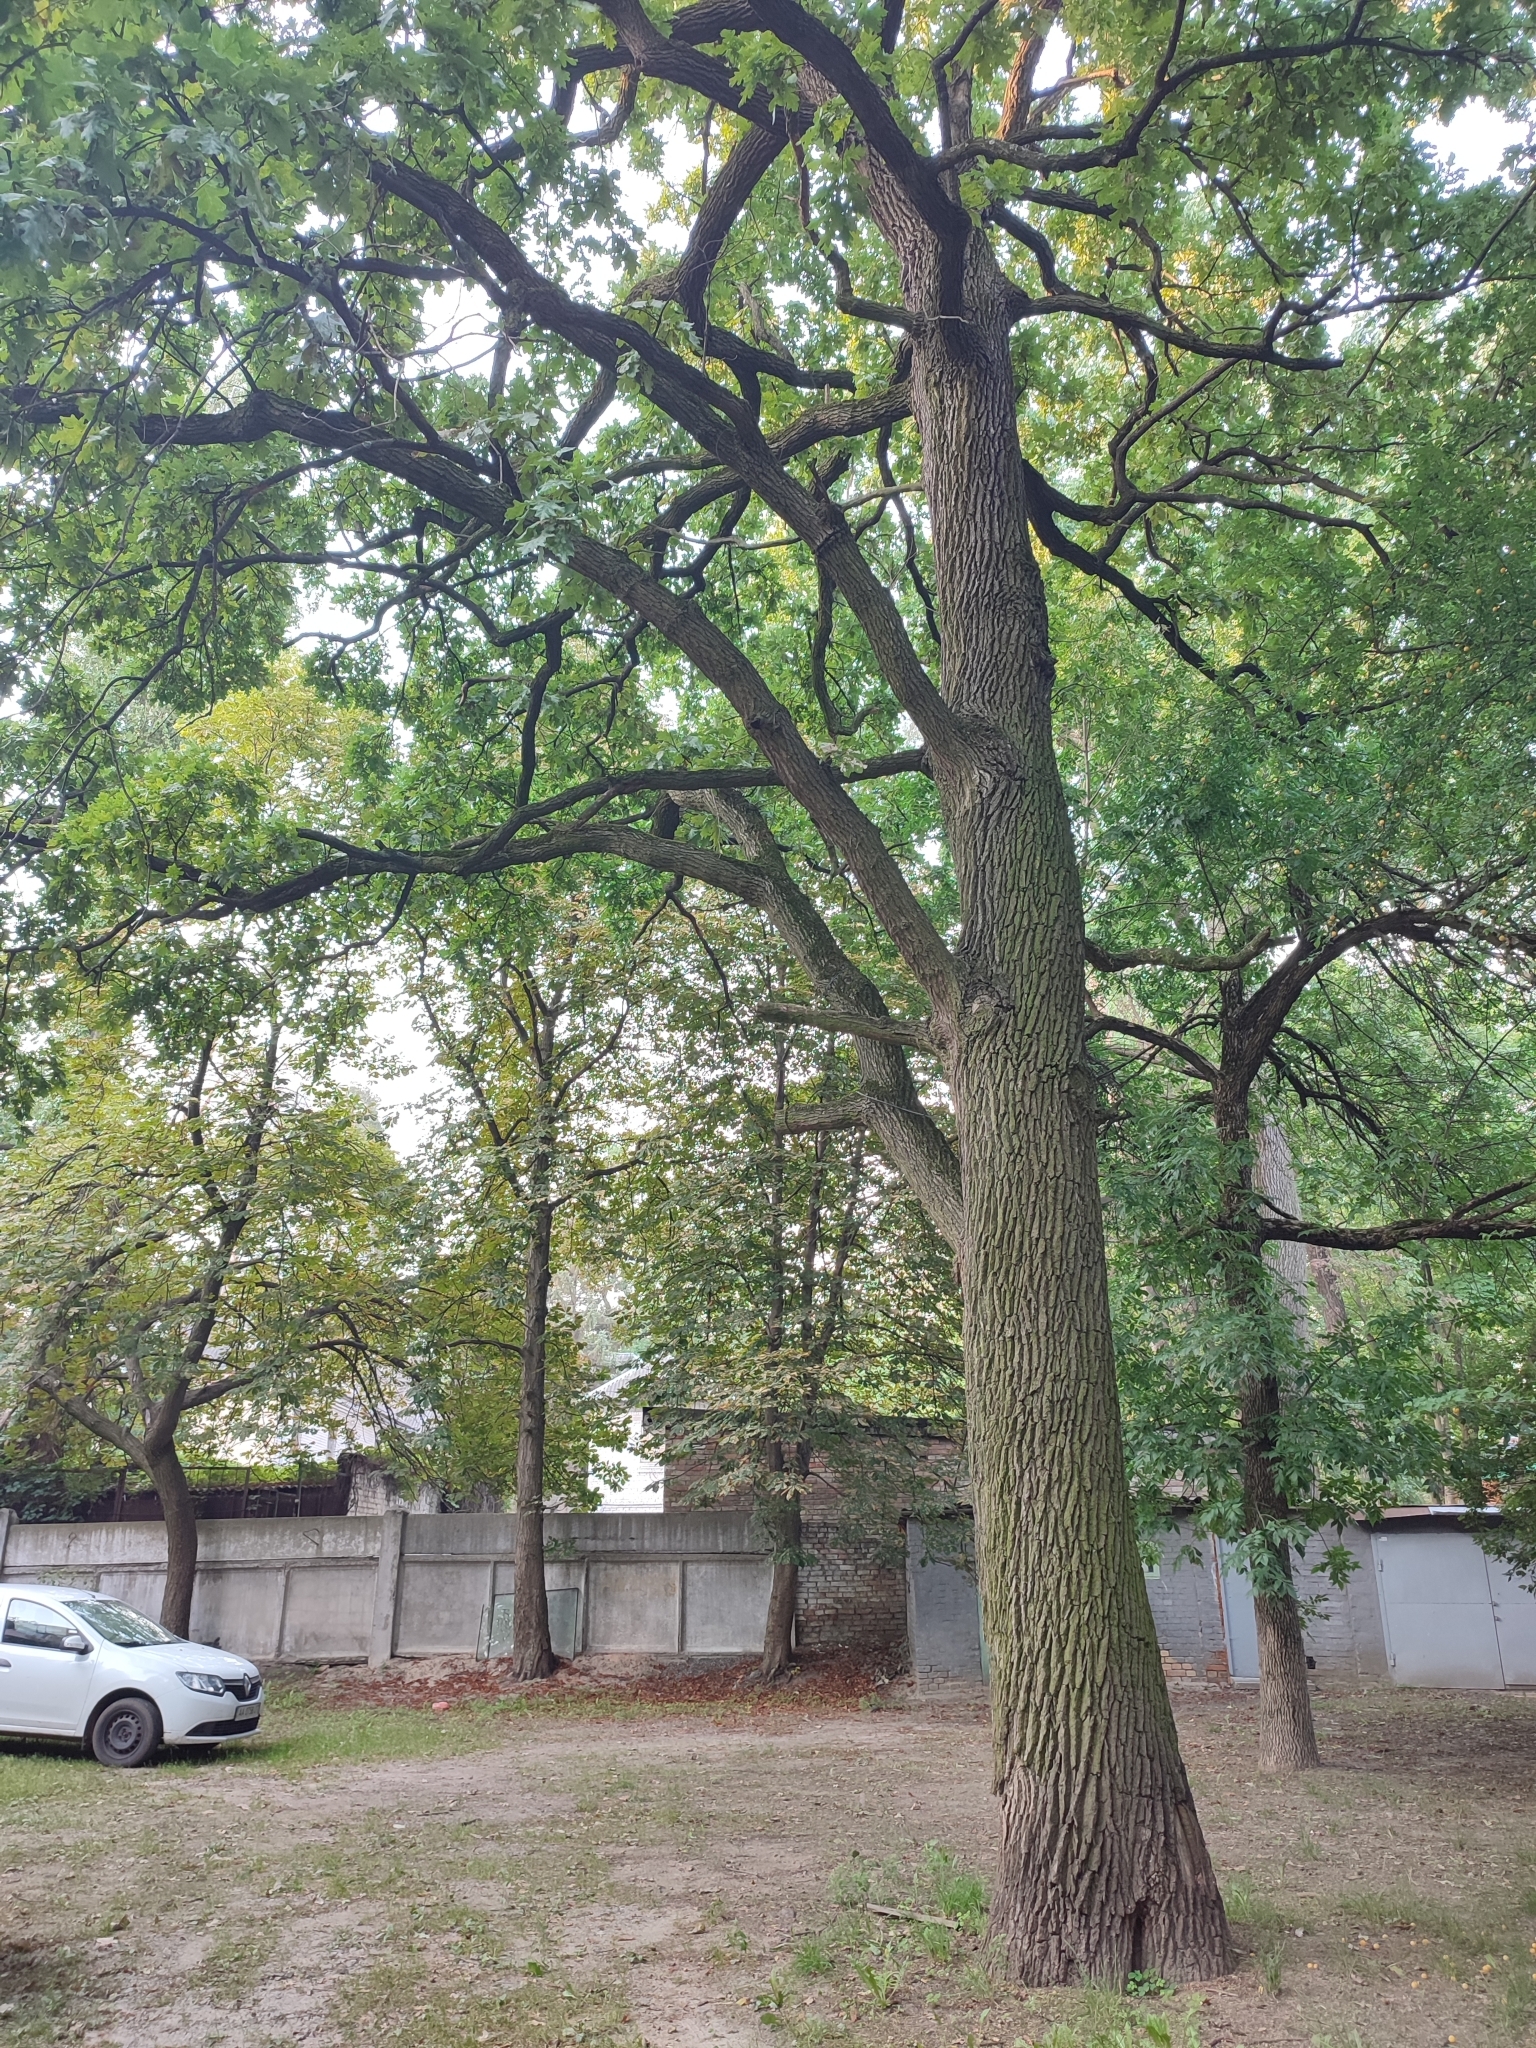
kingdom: Plantae
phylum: Tracheophyta
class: Magnoliopsida
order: Fagales
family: Fagaceae
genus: Quercus
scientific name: Quercus robur
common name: Pedunculate oak
